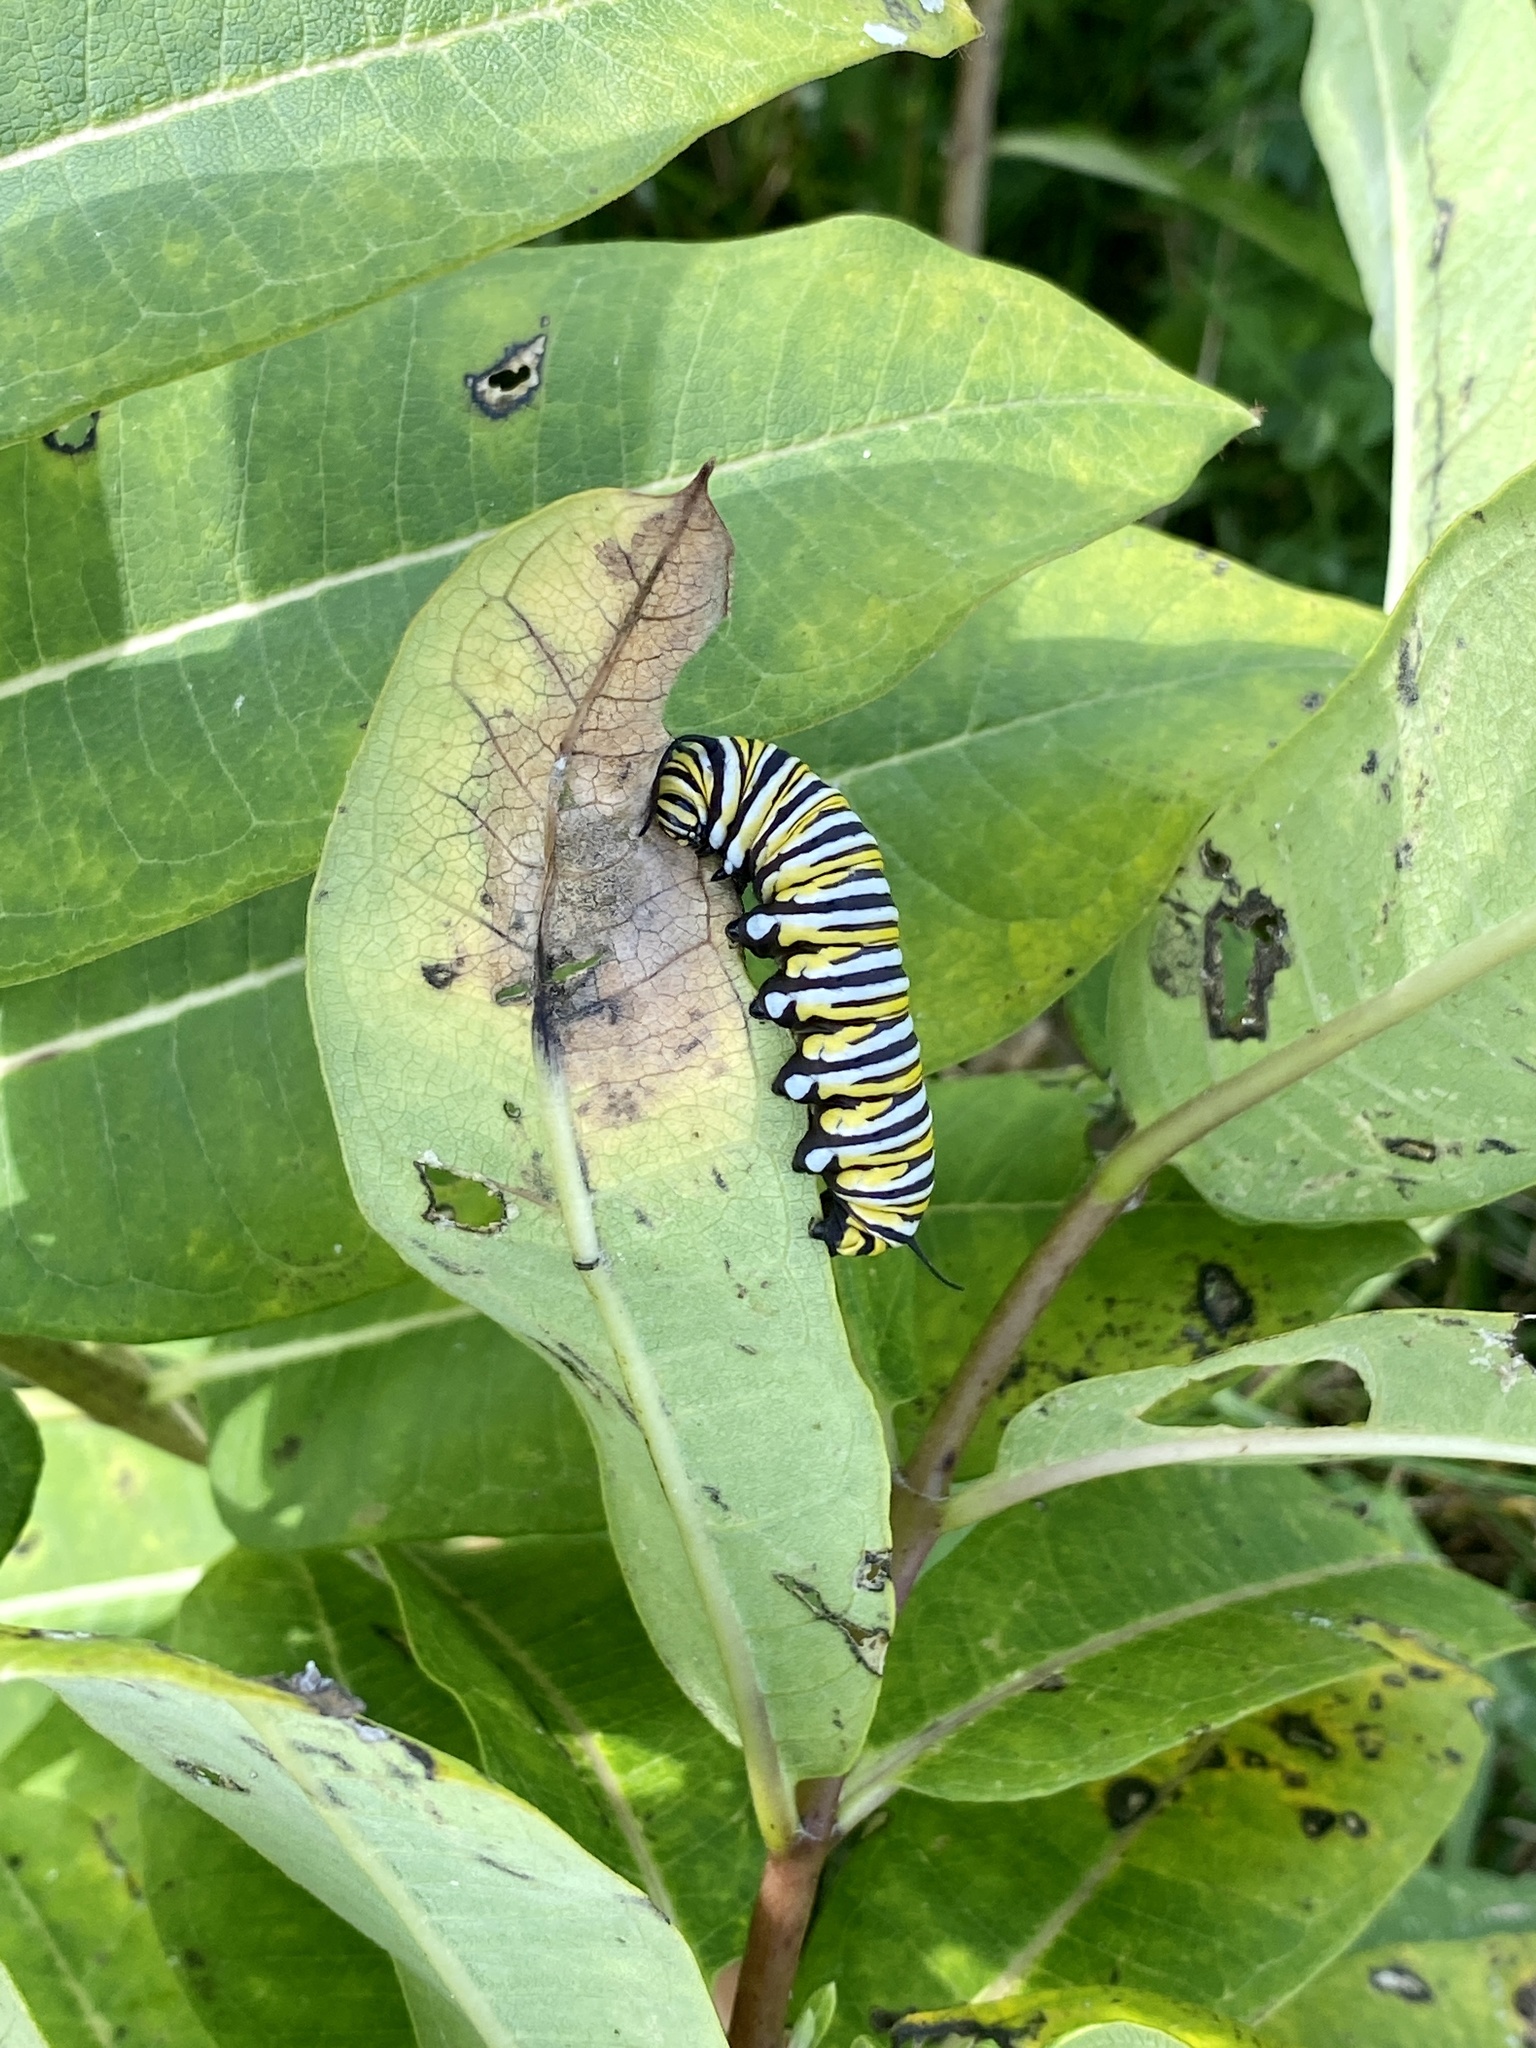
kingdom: Animalia
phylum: Arthropoda
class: Insecta
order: Lepidoptera
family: Nymphalidae
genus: Danaus
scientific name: Danaus plexippus
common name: Monarch
